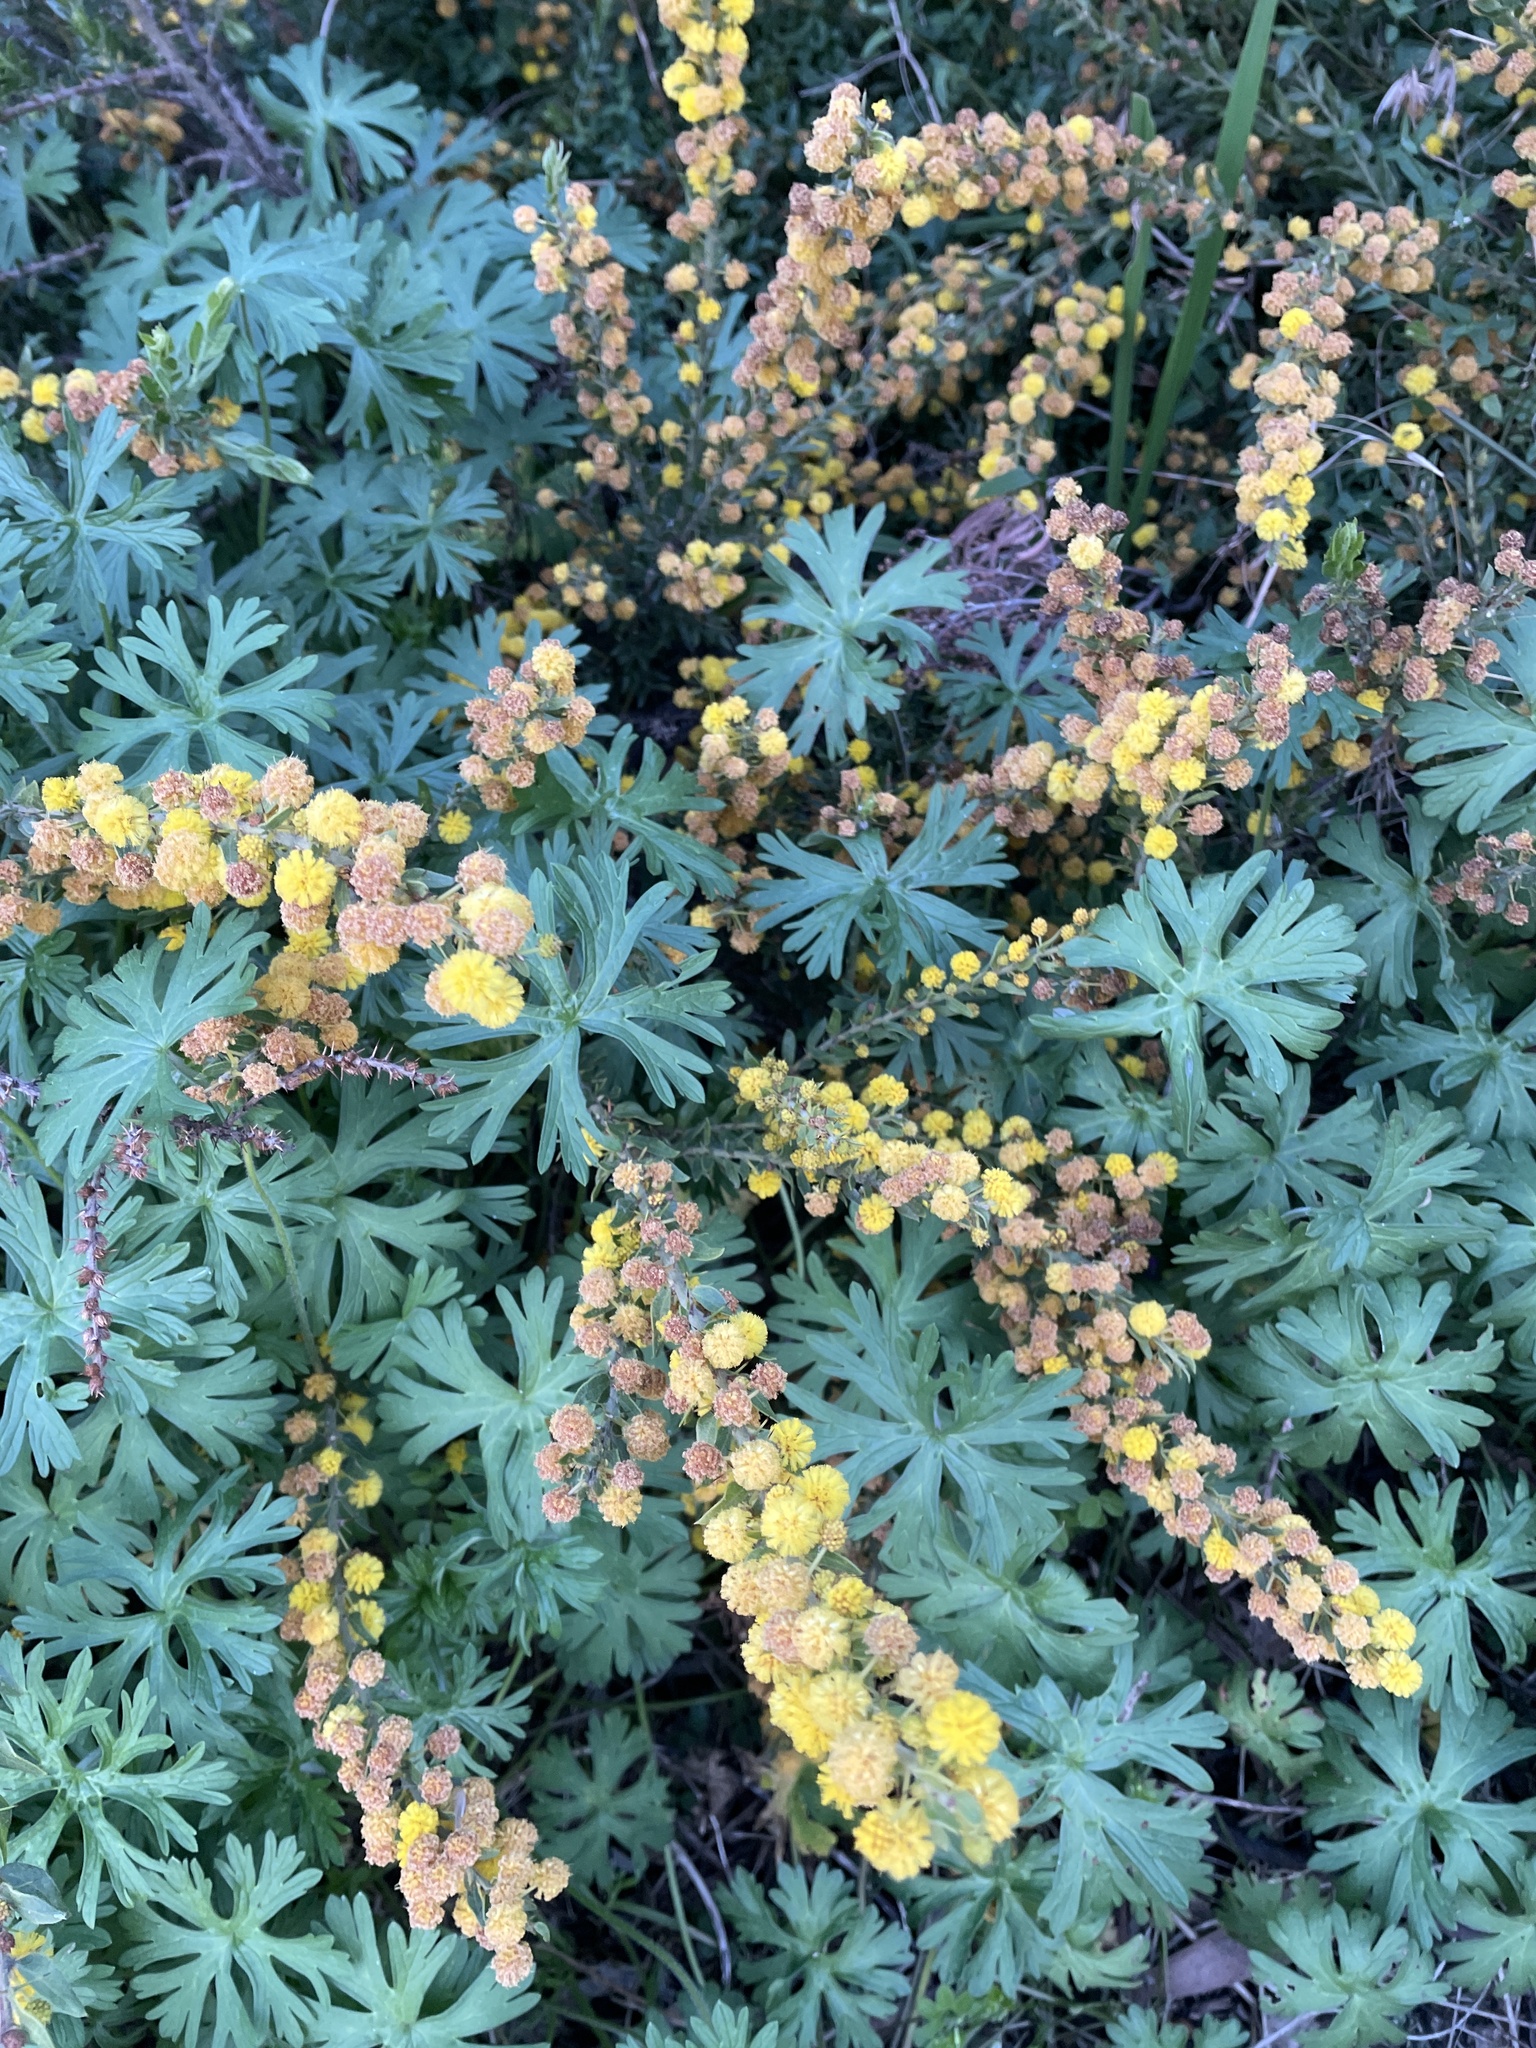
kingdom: Plantae
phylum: Tracheophyta
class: Magnoliopsida
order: Fabales
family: Fabaceae
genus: Acacia
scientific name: Acacia paradoxa
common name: Paradox acacia
